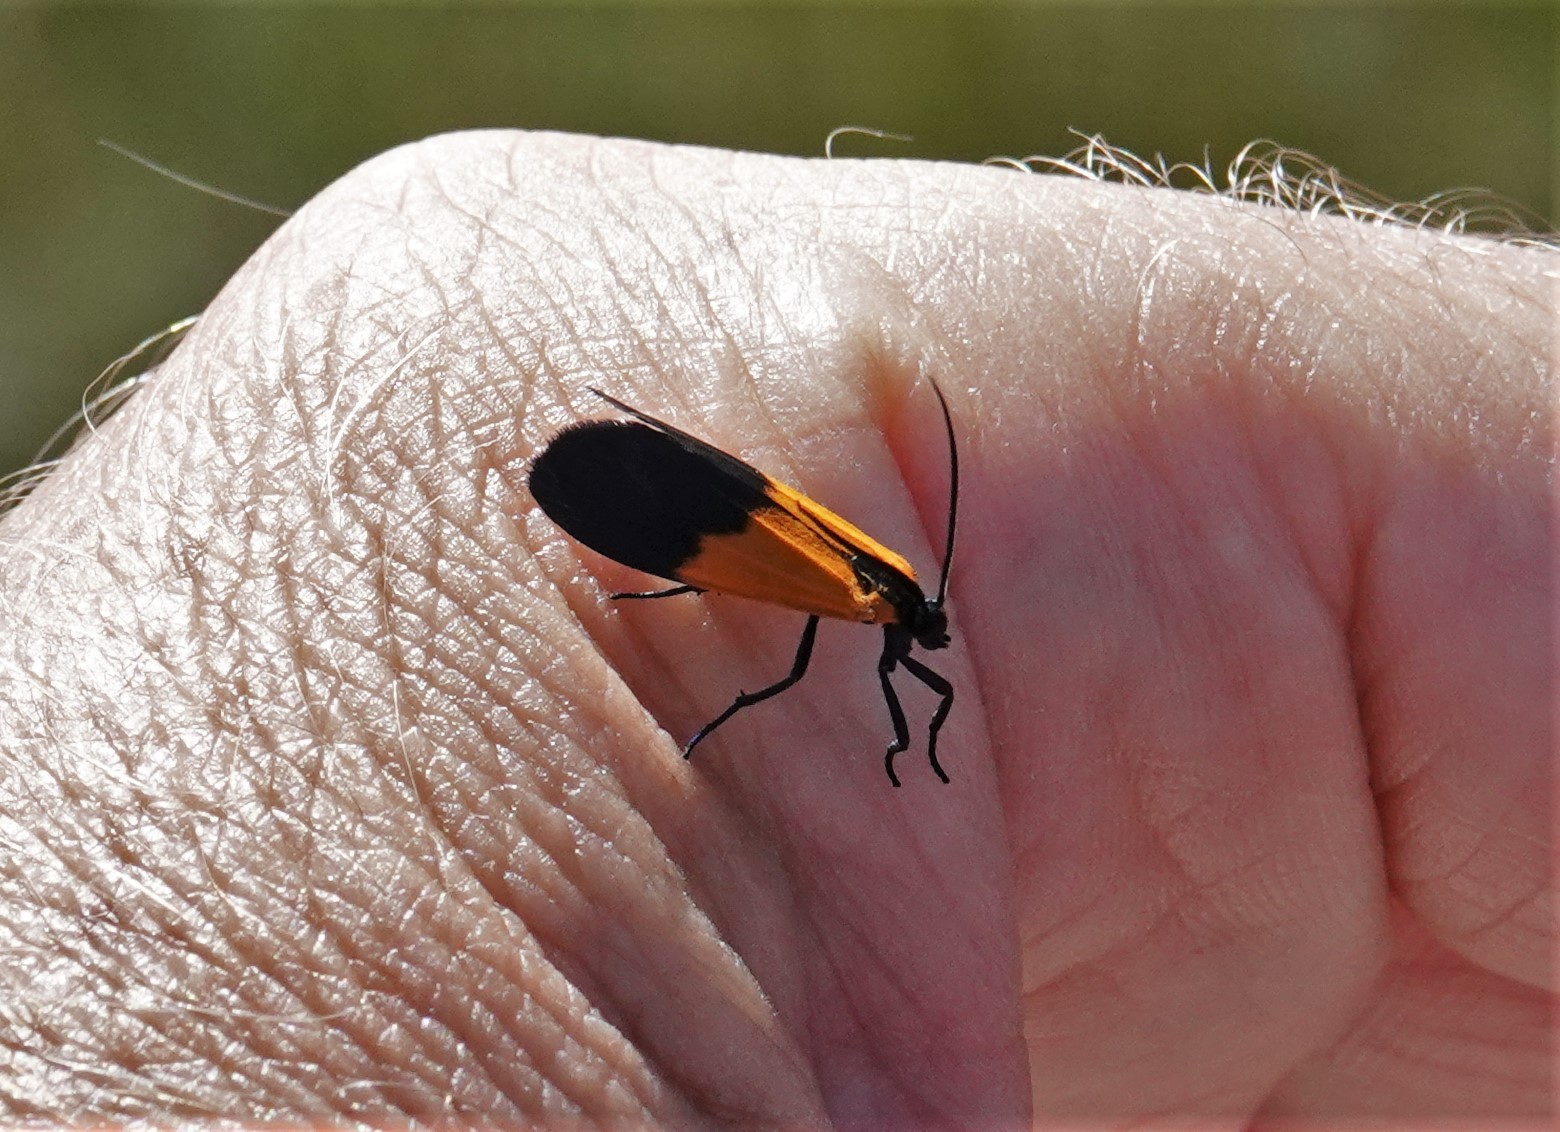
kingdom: Animalia
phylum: Arthropoda
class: Insecta
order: Lepidoptera
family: Erebidae
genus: Lycomorpha
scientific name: Lycomorpha pholus
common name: Black-and-yellow lichen moth
